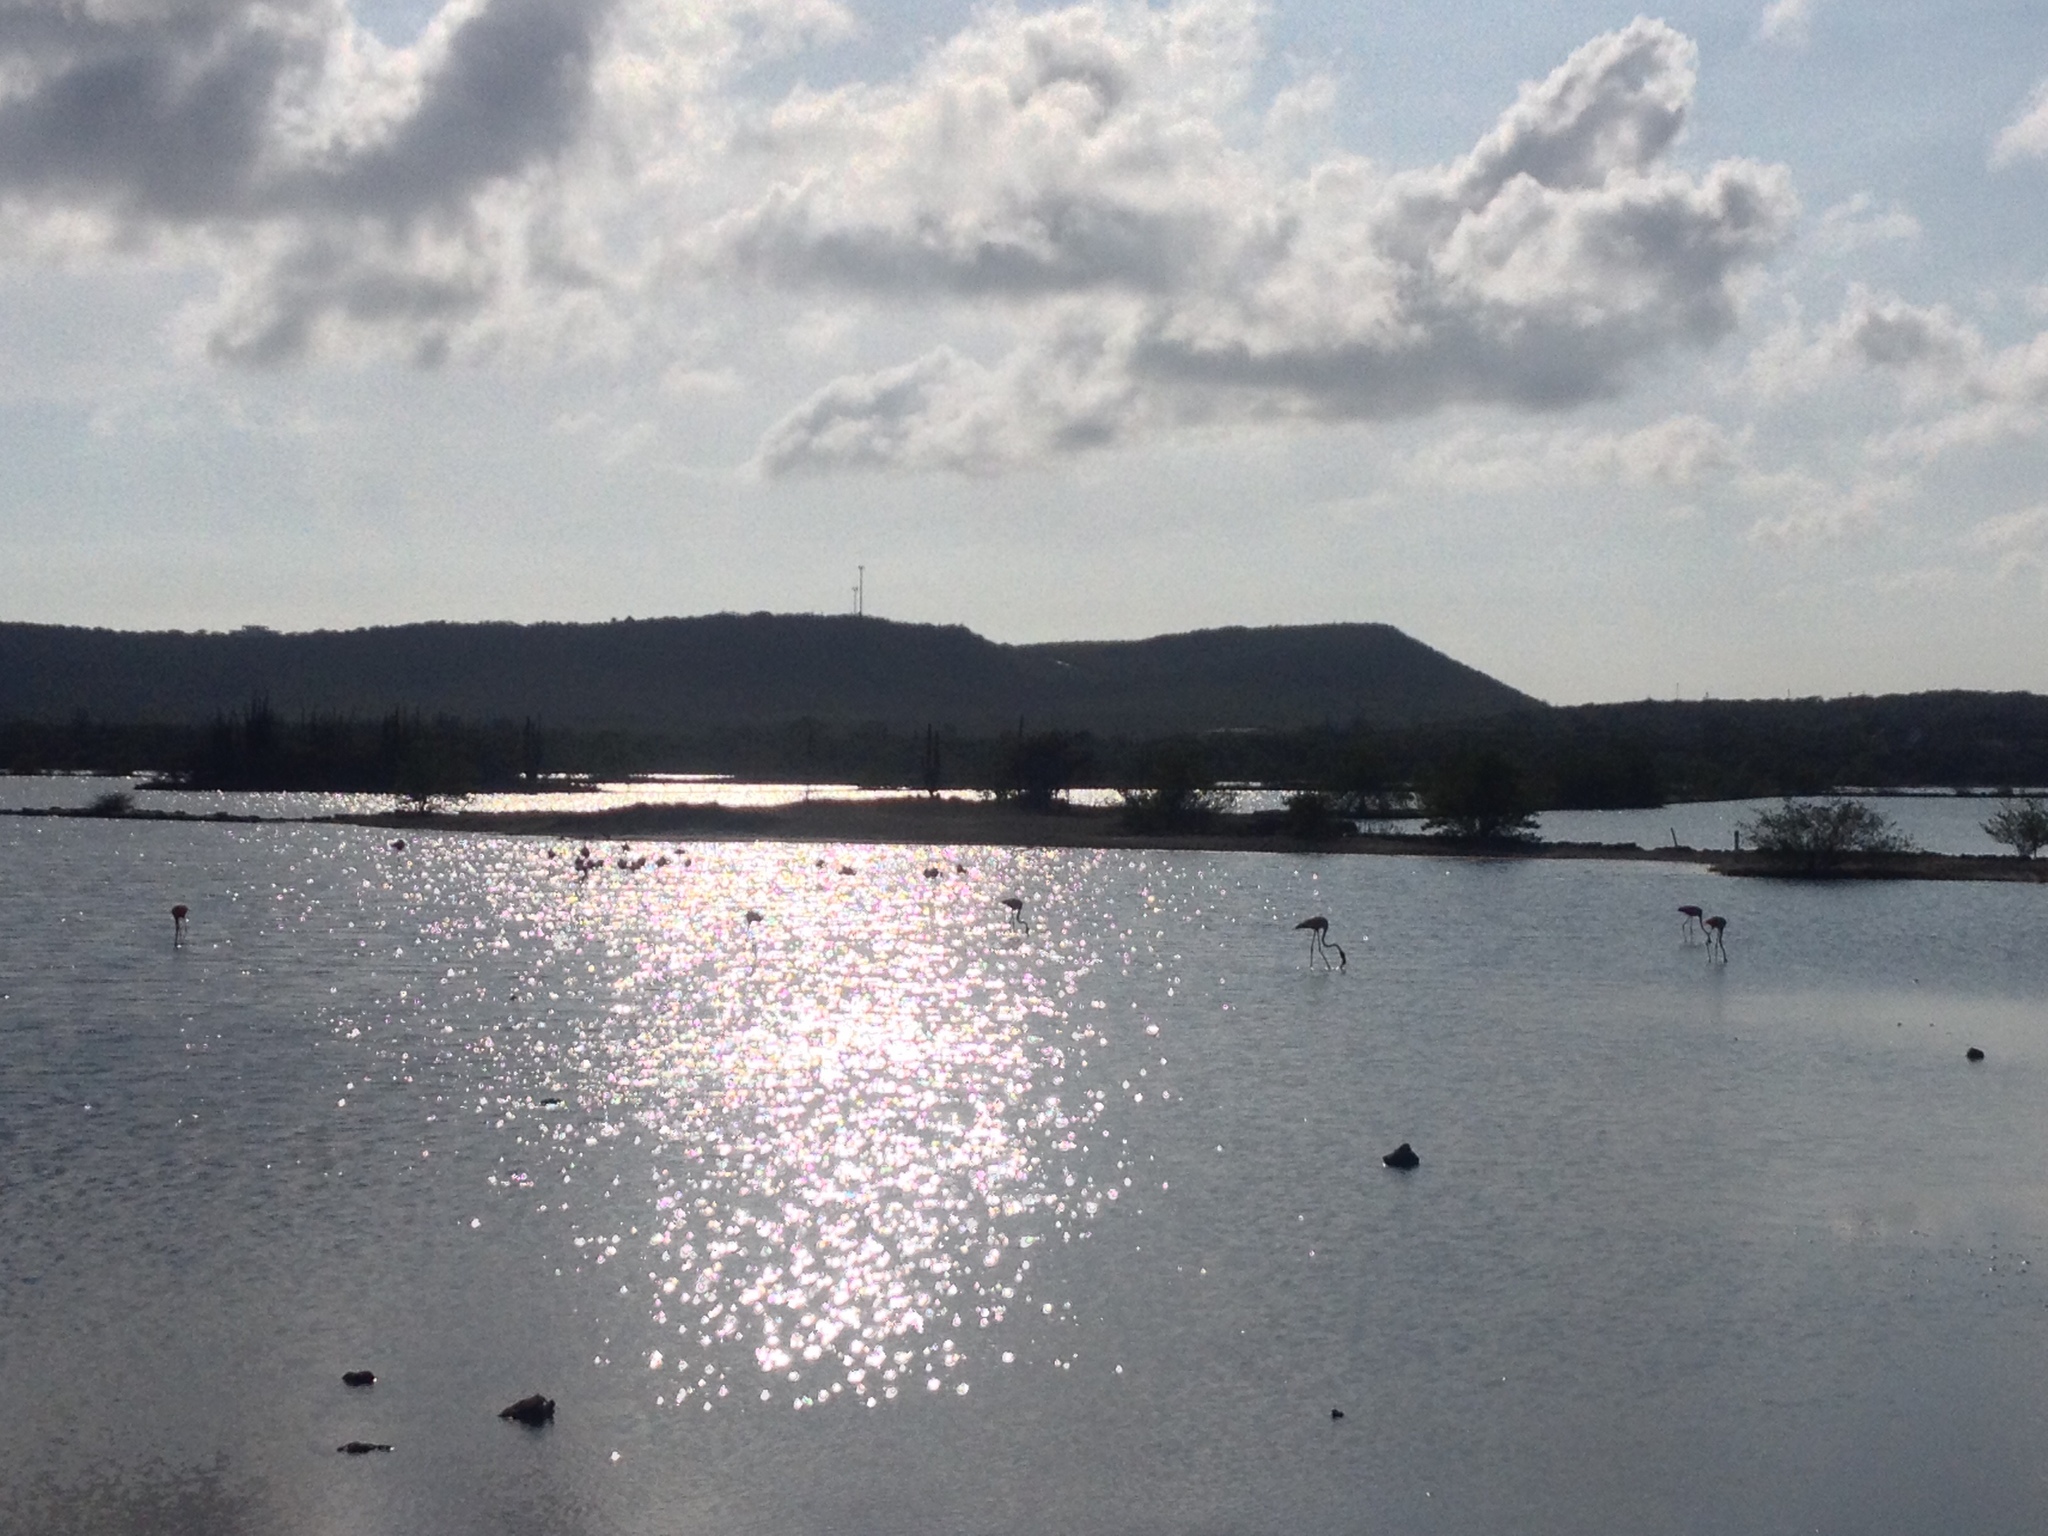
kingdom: Animalia
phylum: Chordata
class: Aves
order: Phoenicopteriformes
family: Phoenicopteridae
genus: Phoenicopterus
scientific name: Phoenicopterus ruber
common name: American flamingo
